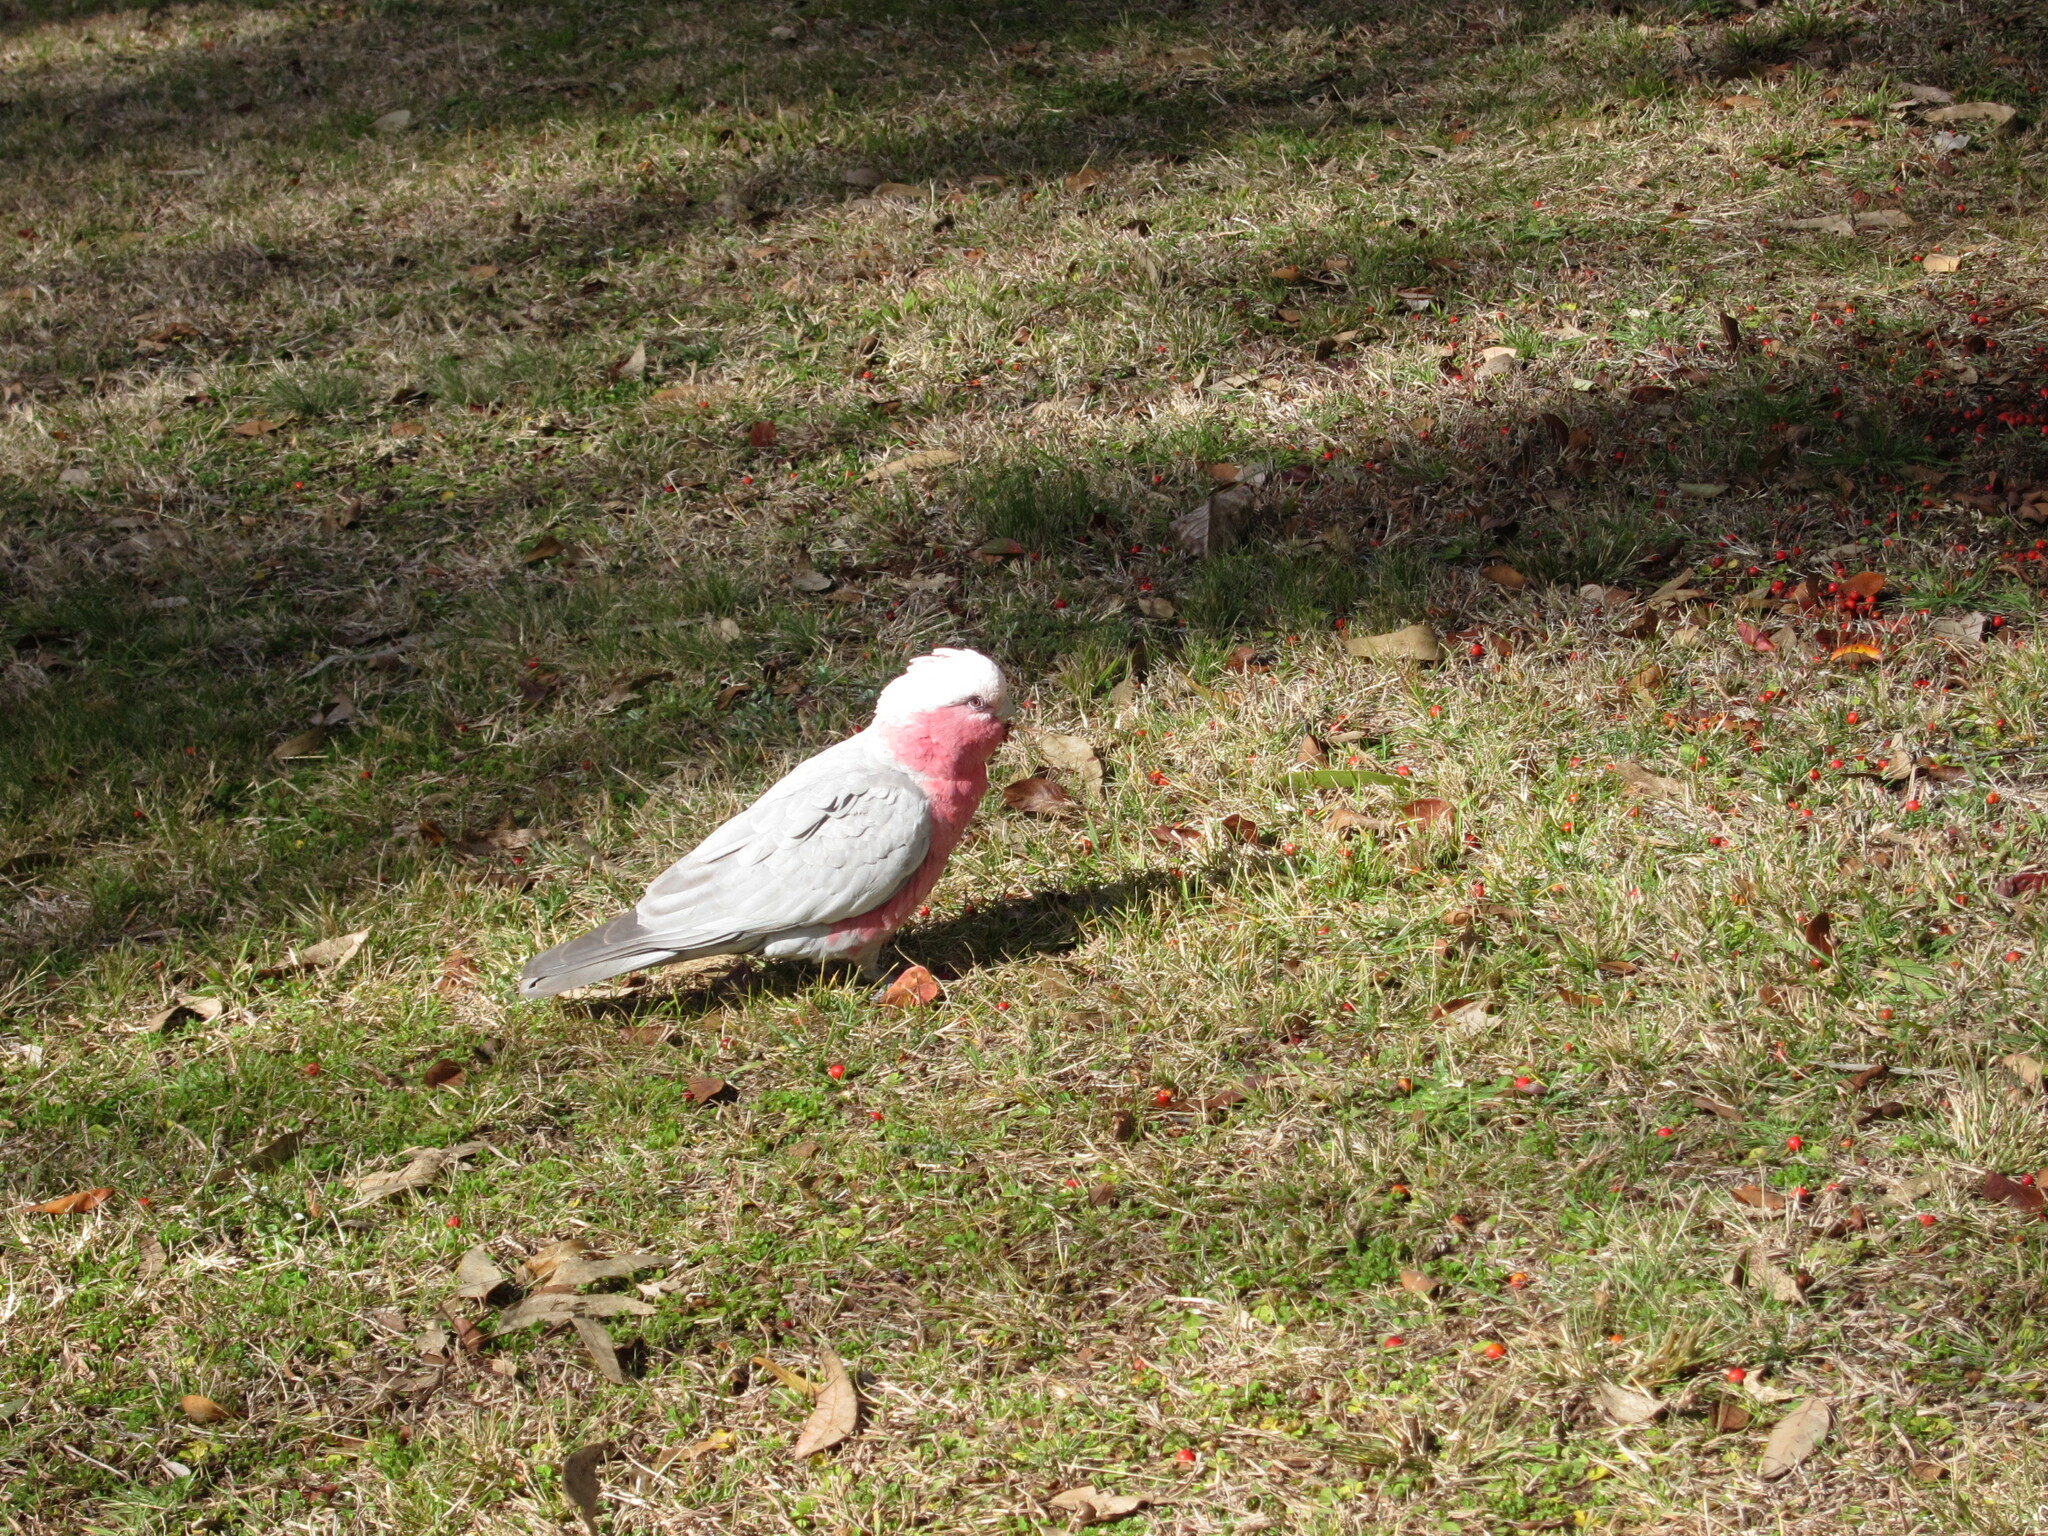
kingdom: Animalia
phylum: Chordata
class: Aves
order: Psittaciformes
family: Psittacidae
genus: Eolophus
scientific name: Eolophus roseicapilla
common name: Galah
